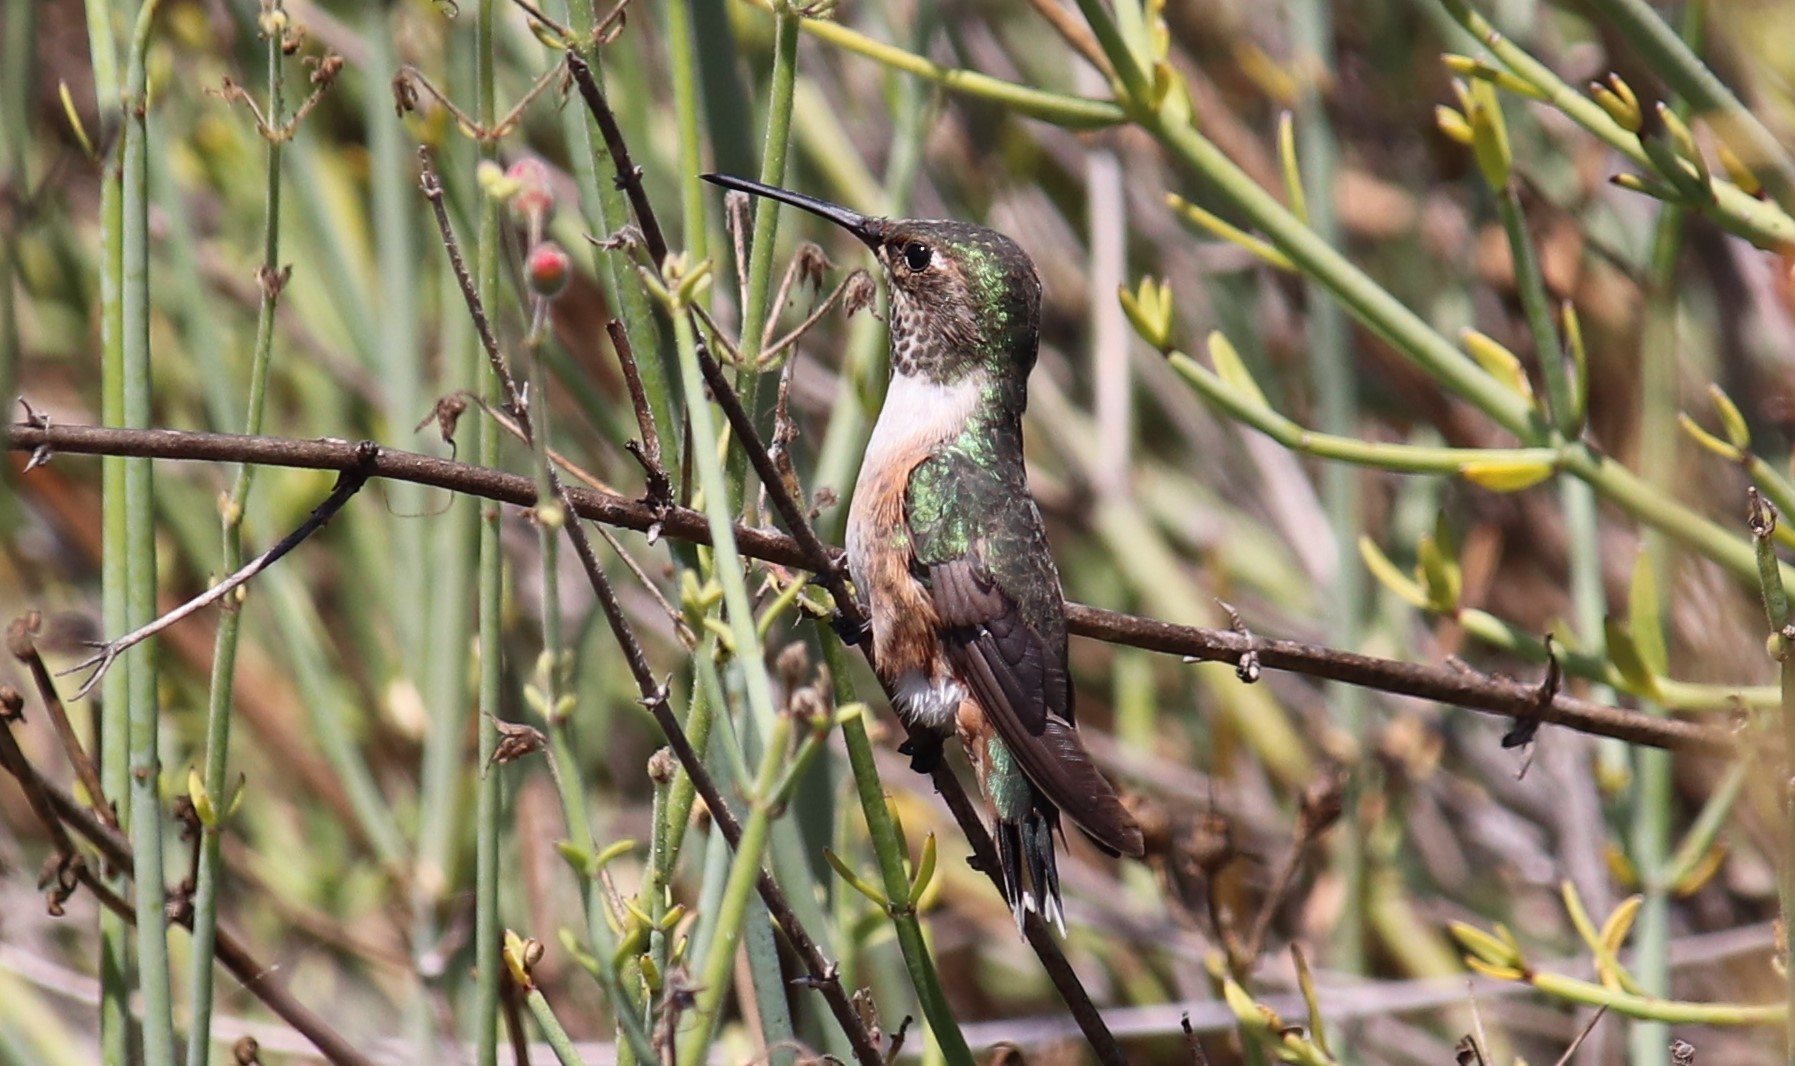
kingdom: Animalia
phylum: Chordata
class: Aves
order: Apodiformes
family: Trochilidae
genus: Selasphorus
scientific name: Selasphorus
